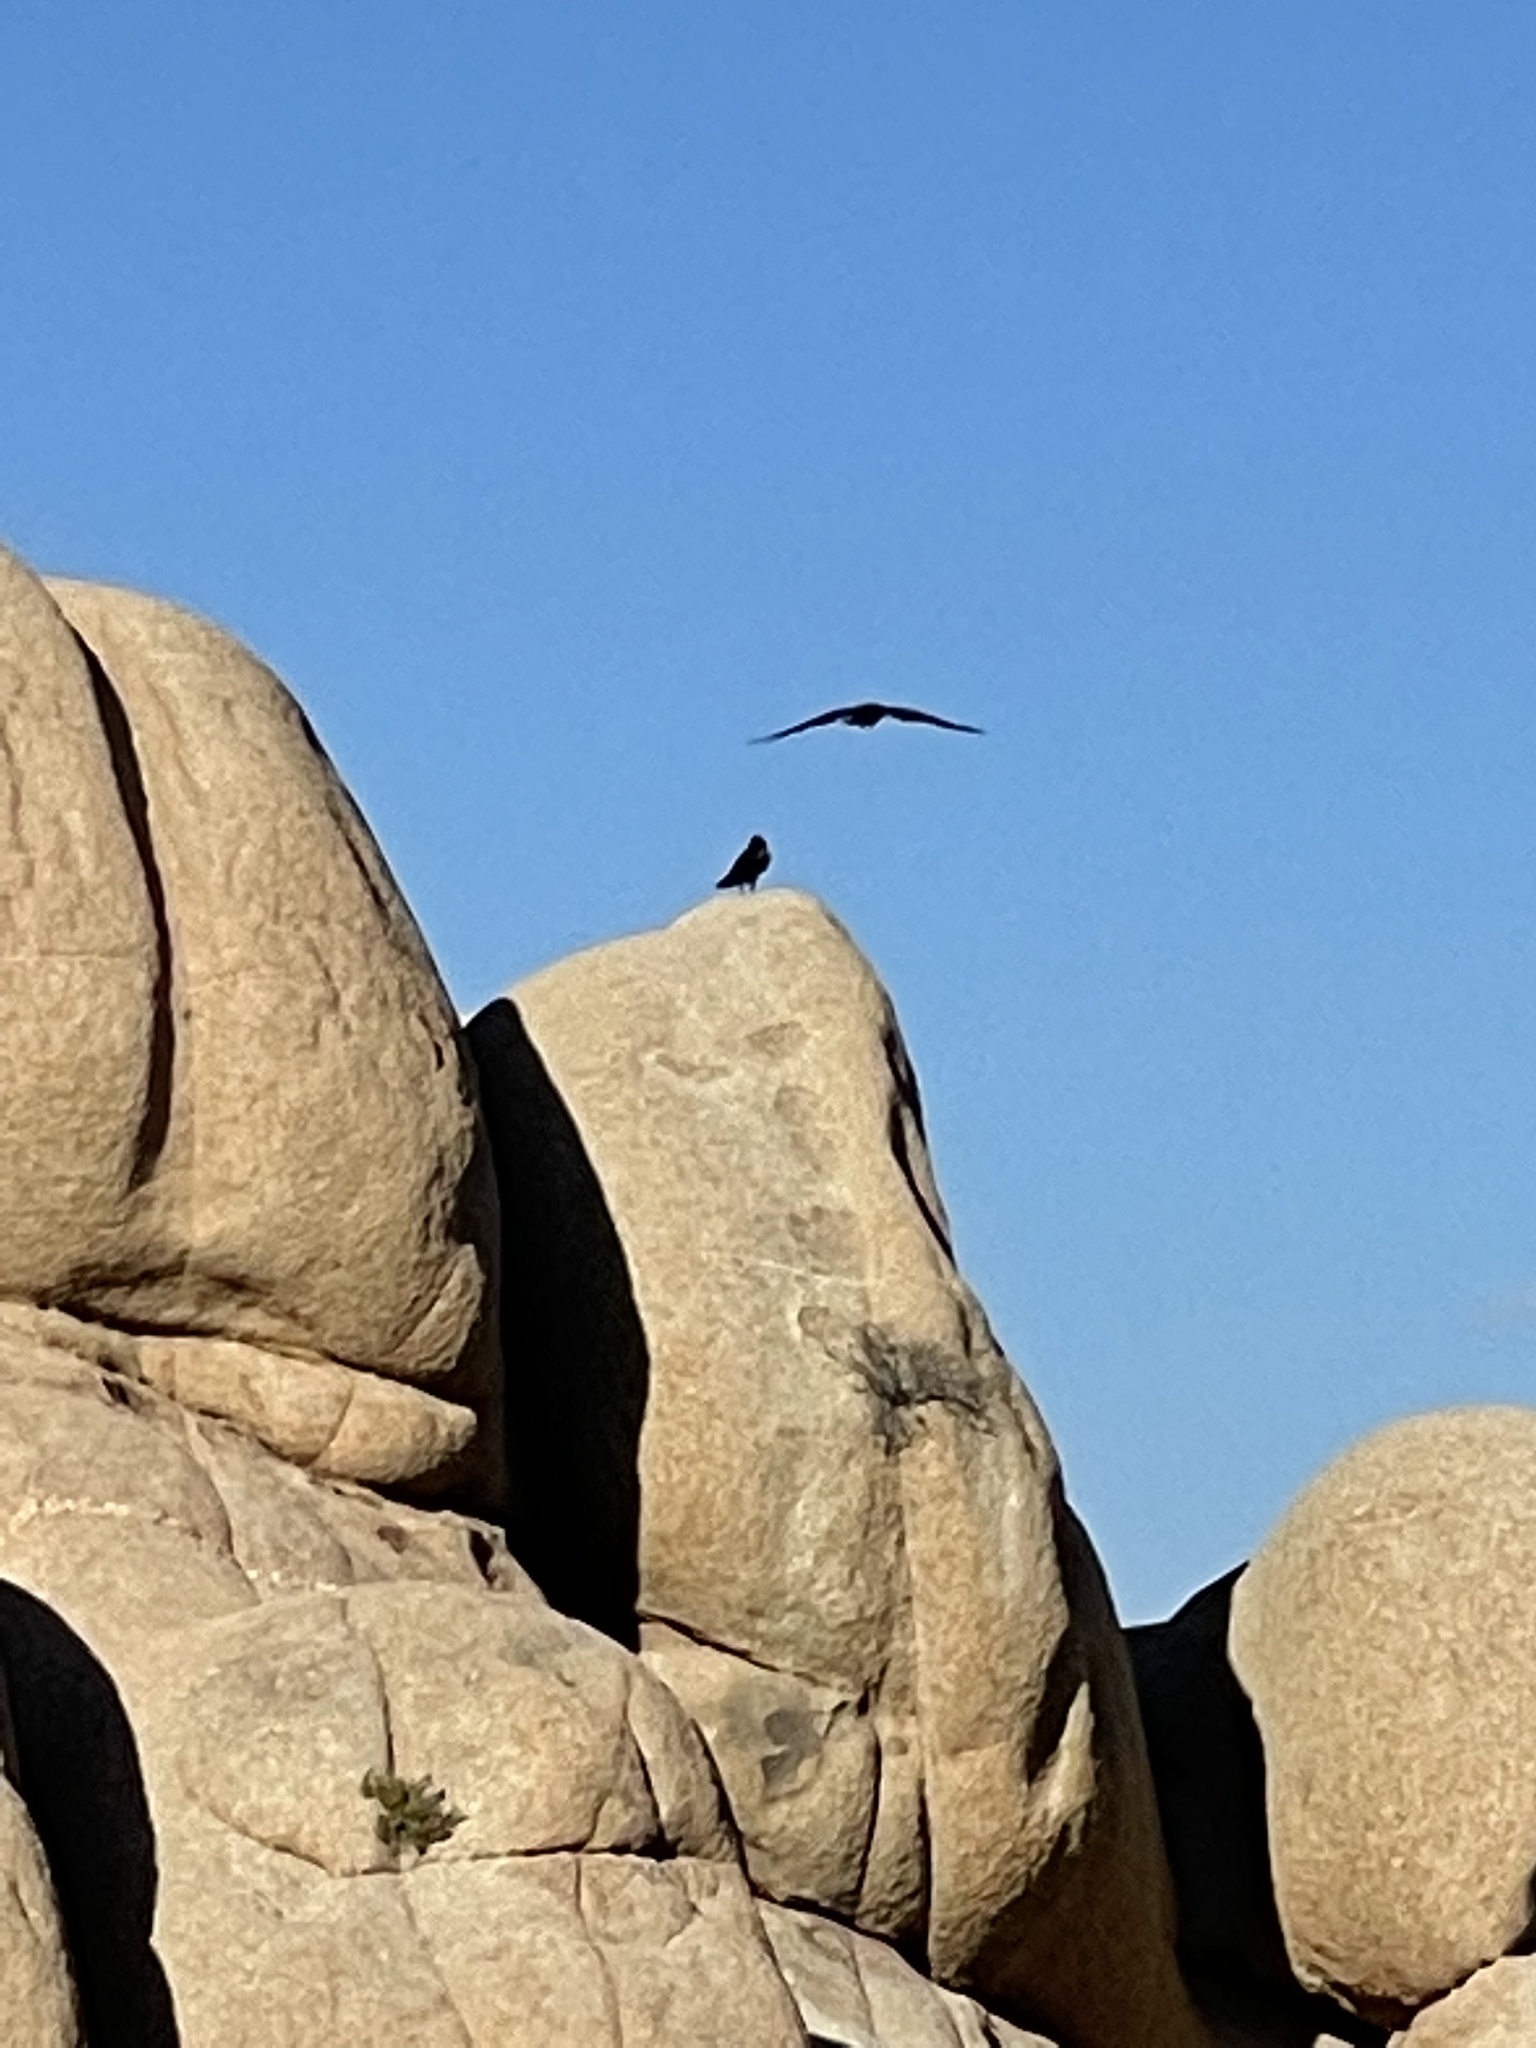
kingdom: Animalia
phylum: Chordata
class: Aves
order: Passeriformes
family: Corvidae
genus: Corvus
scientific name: Corvus corax
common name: Common raven
